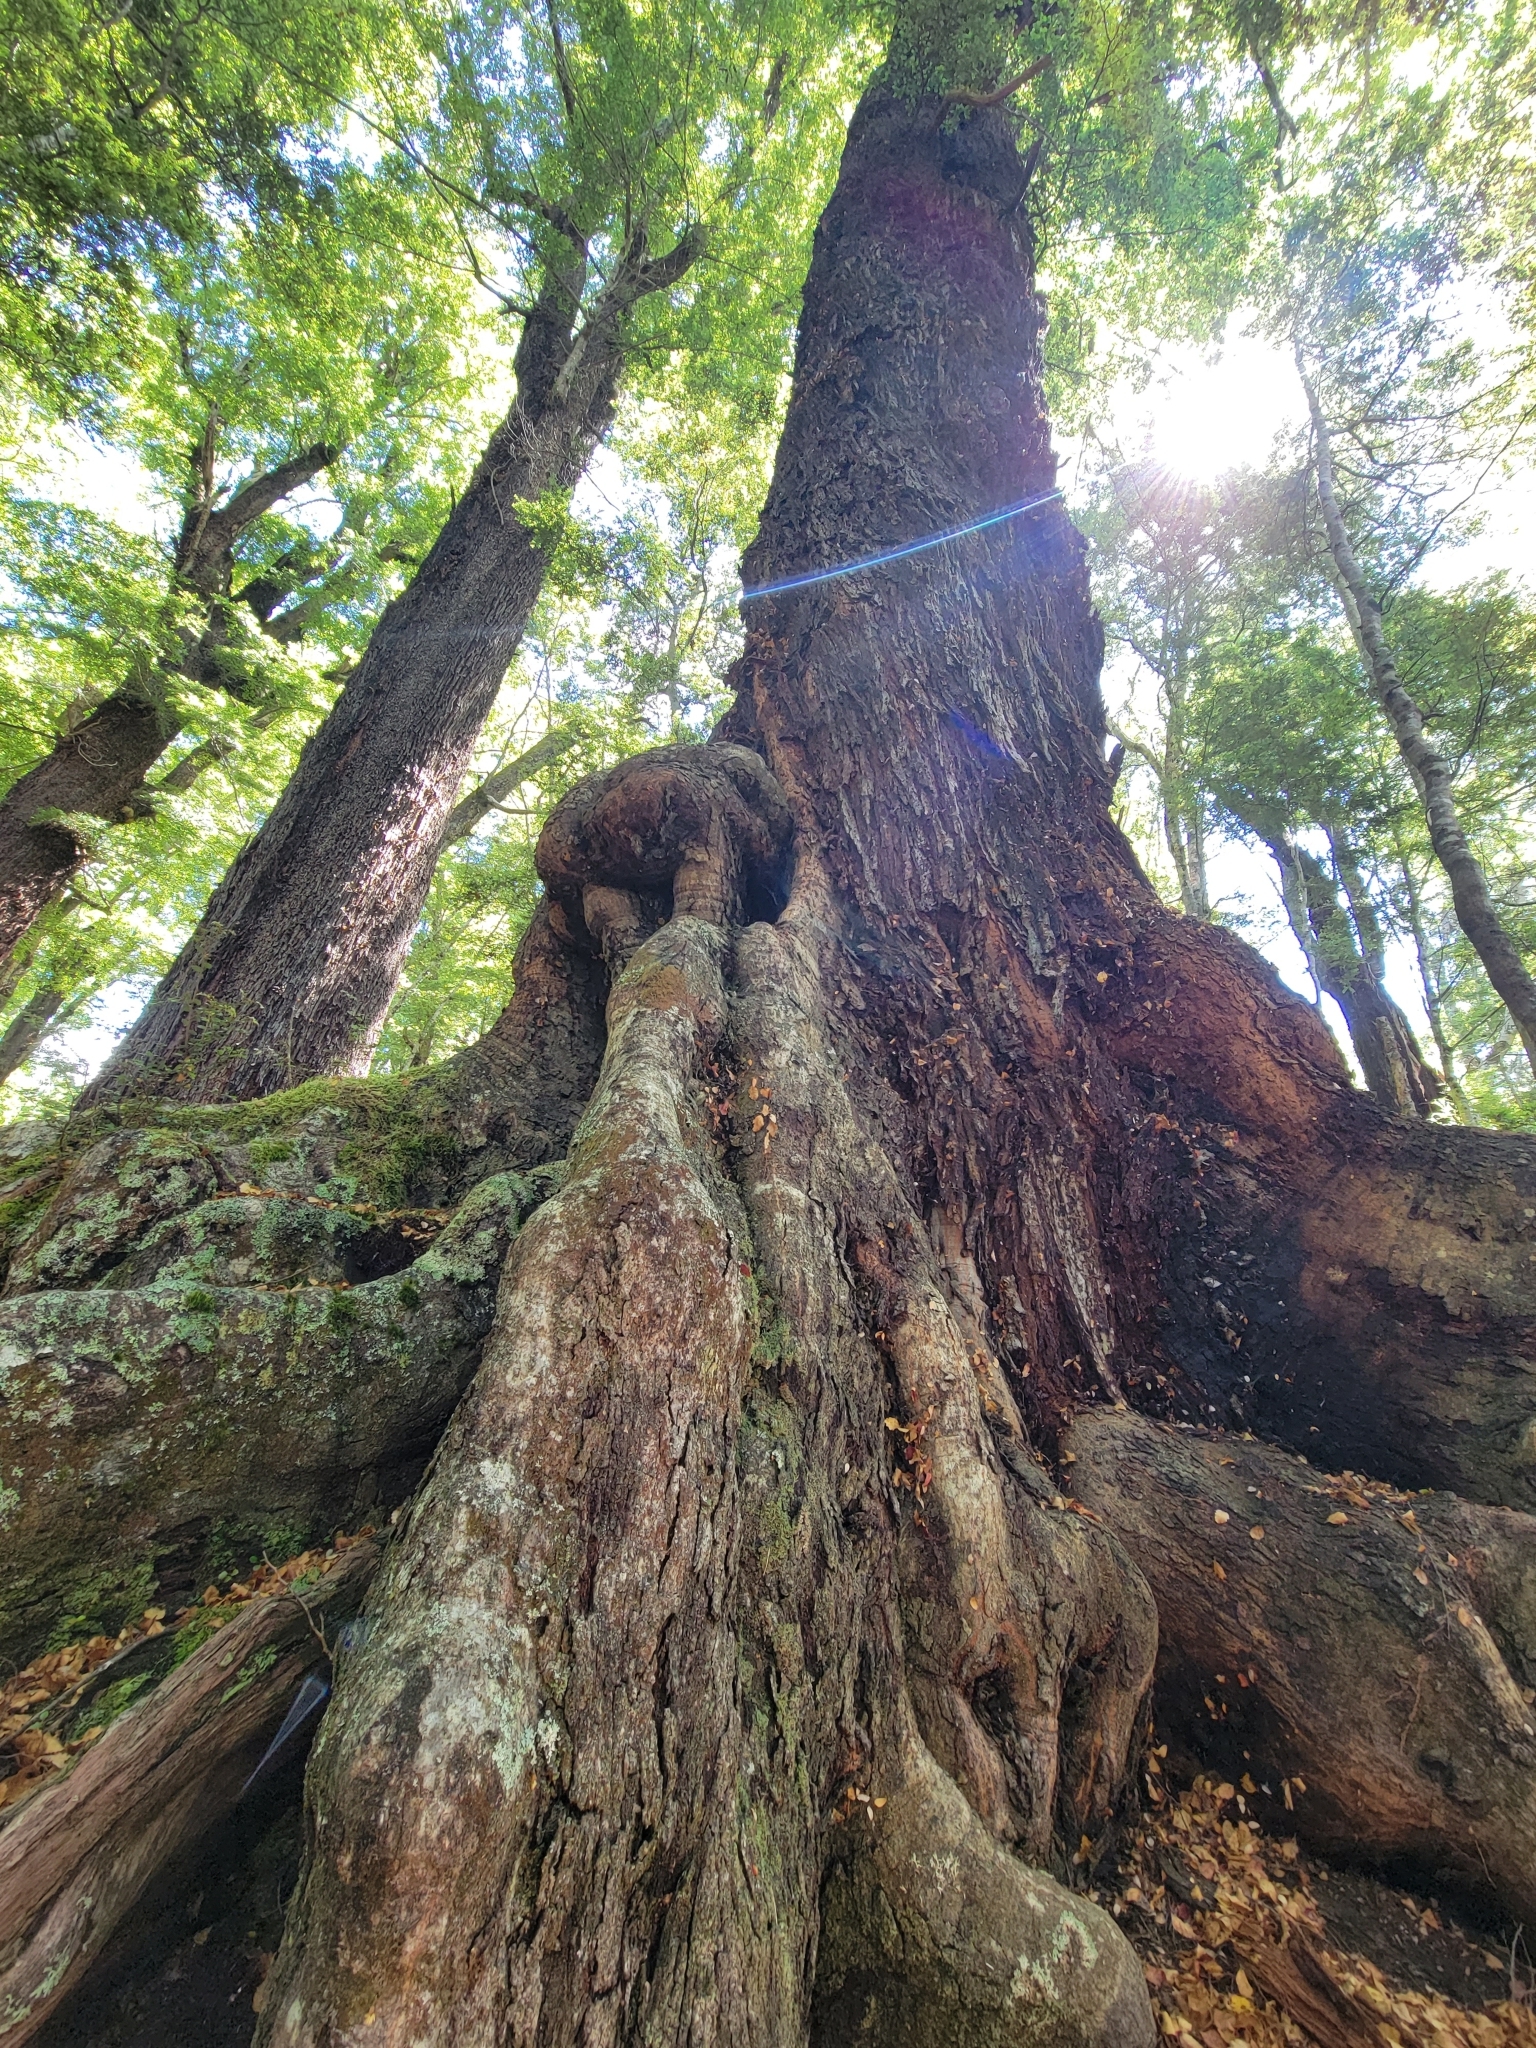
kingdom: Plantae
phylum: Tracheophyta
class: Magnoliopsida
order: Fagales
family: Nothofagaceae
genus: Nothofagus
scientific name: Nothofagus fusca
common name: Red beech
